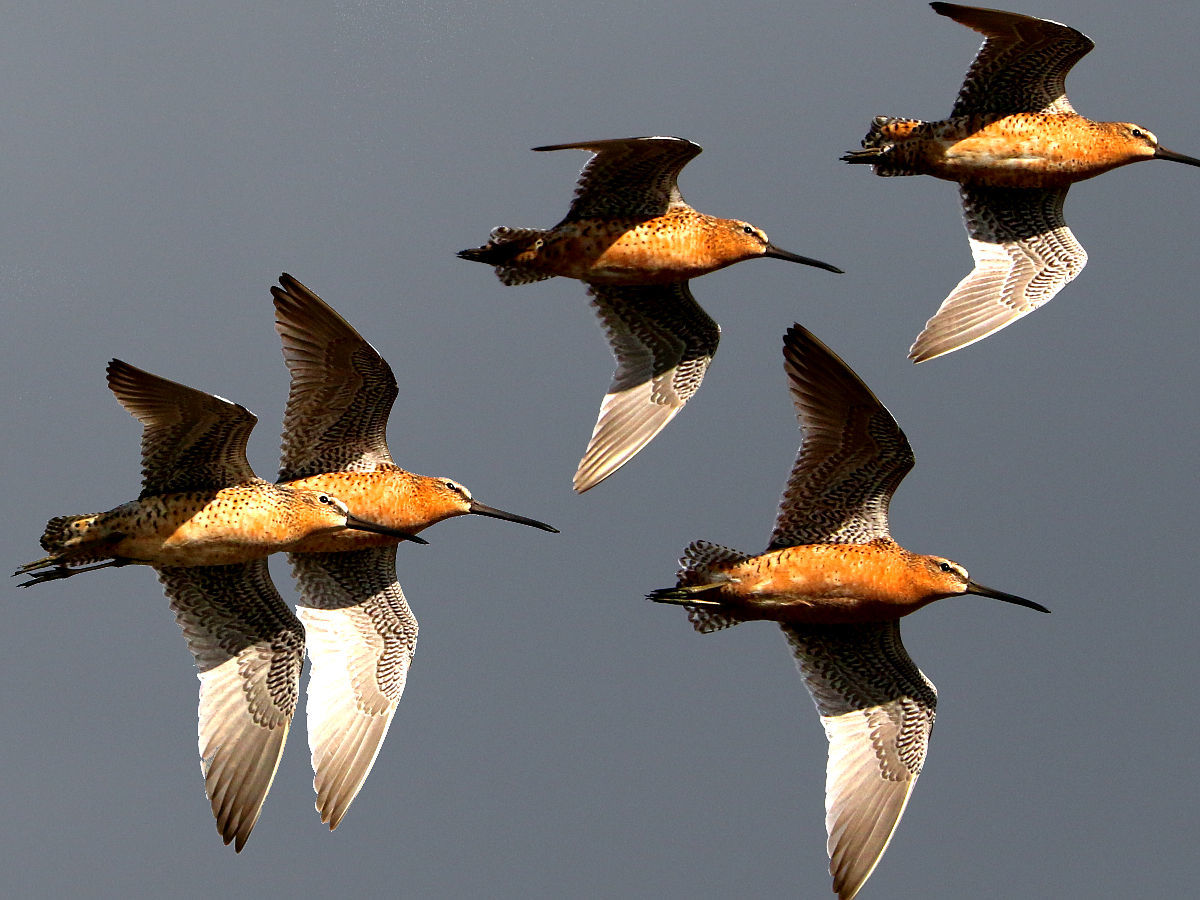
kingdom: Animalia
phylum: Chordata
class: Aves
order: Charadriiformes
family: Scolopacidae
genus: Limnodromus
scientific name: Limnodromus griseus
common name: Short-billed dowitcher
